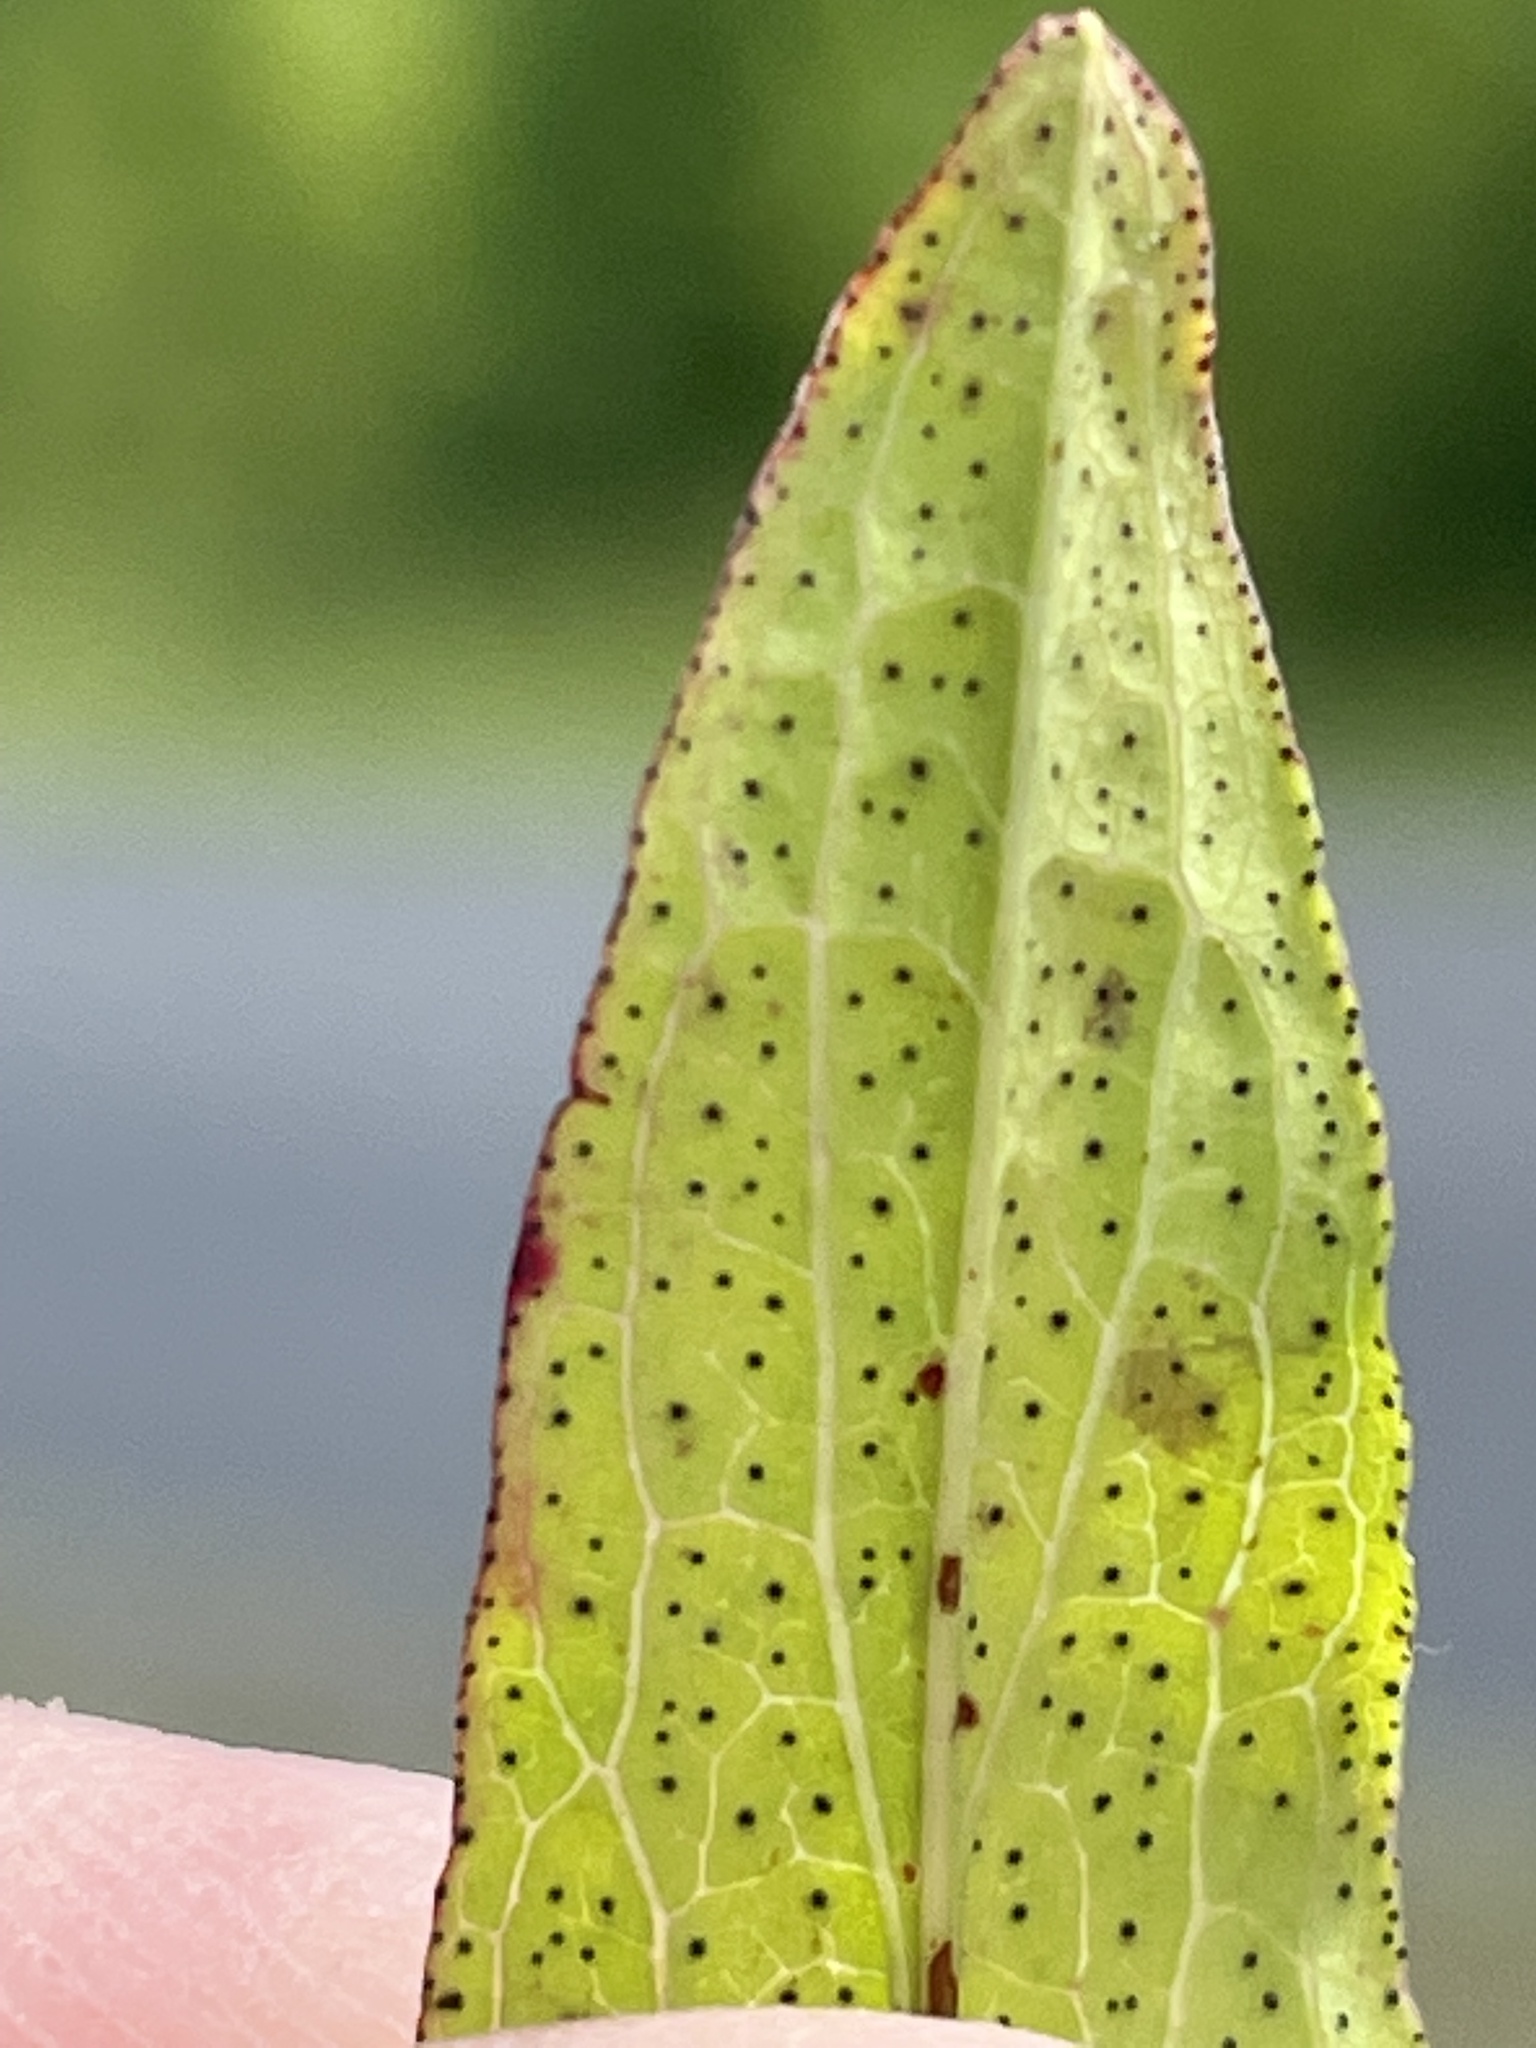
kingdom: Plantae
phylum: Tracheophyta
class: Magnoliopsida
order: Malpighiales
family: Hypericaceae
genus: Hypericum
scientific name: Hypericum punctatum
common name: Spotted st. john's-wort
